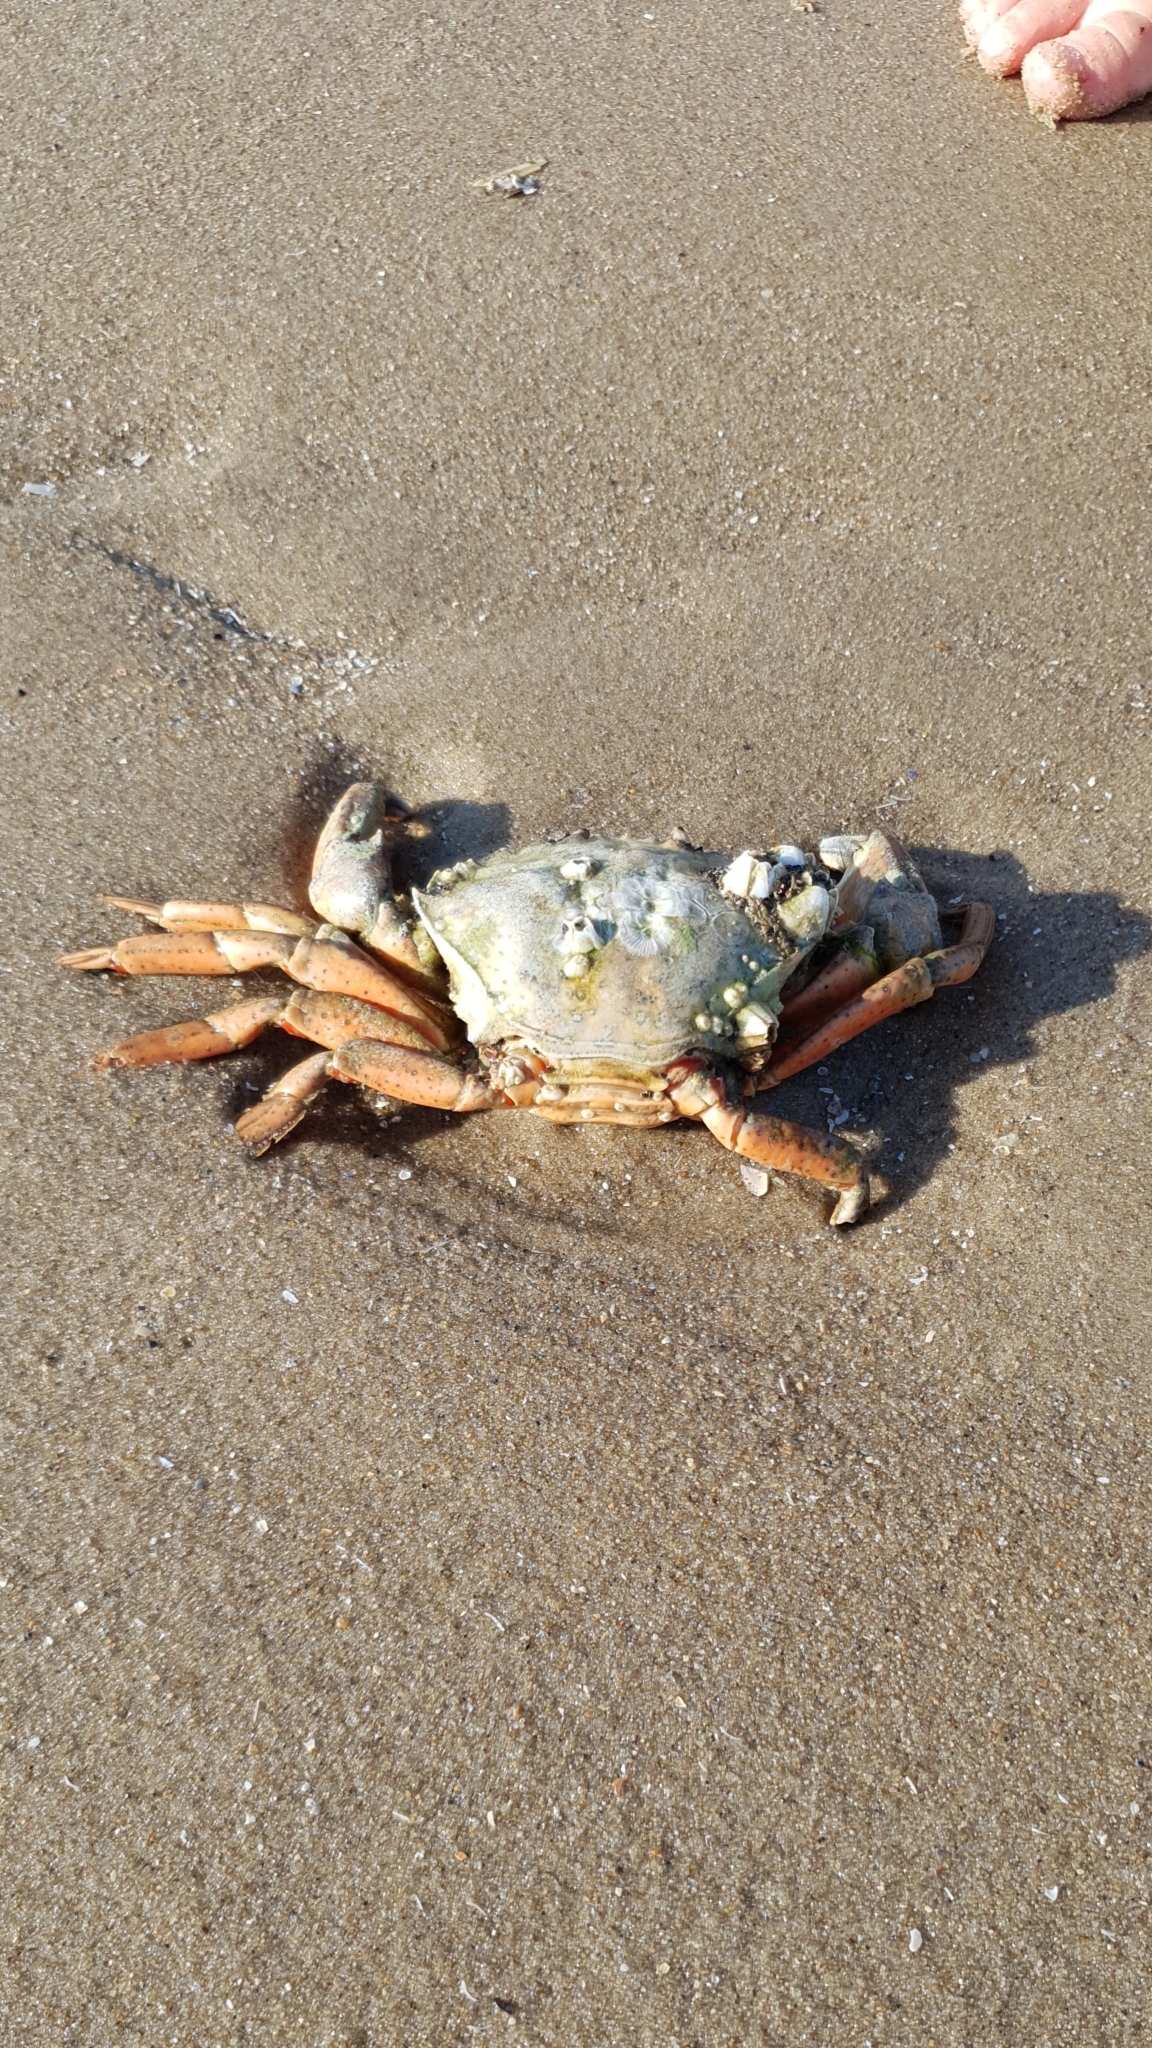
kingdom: Animalia
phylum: Arthropoda
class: Malacostraca
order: Decapoda
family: Carcinidae
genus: Carcinus
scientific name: Carcinus maenas
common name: European green crab
